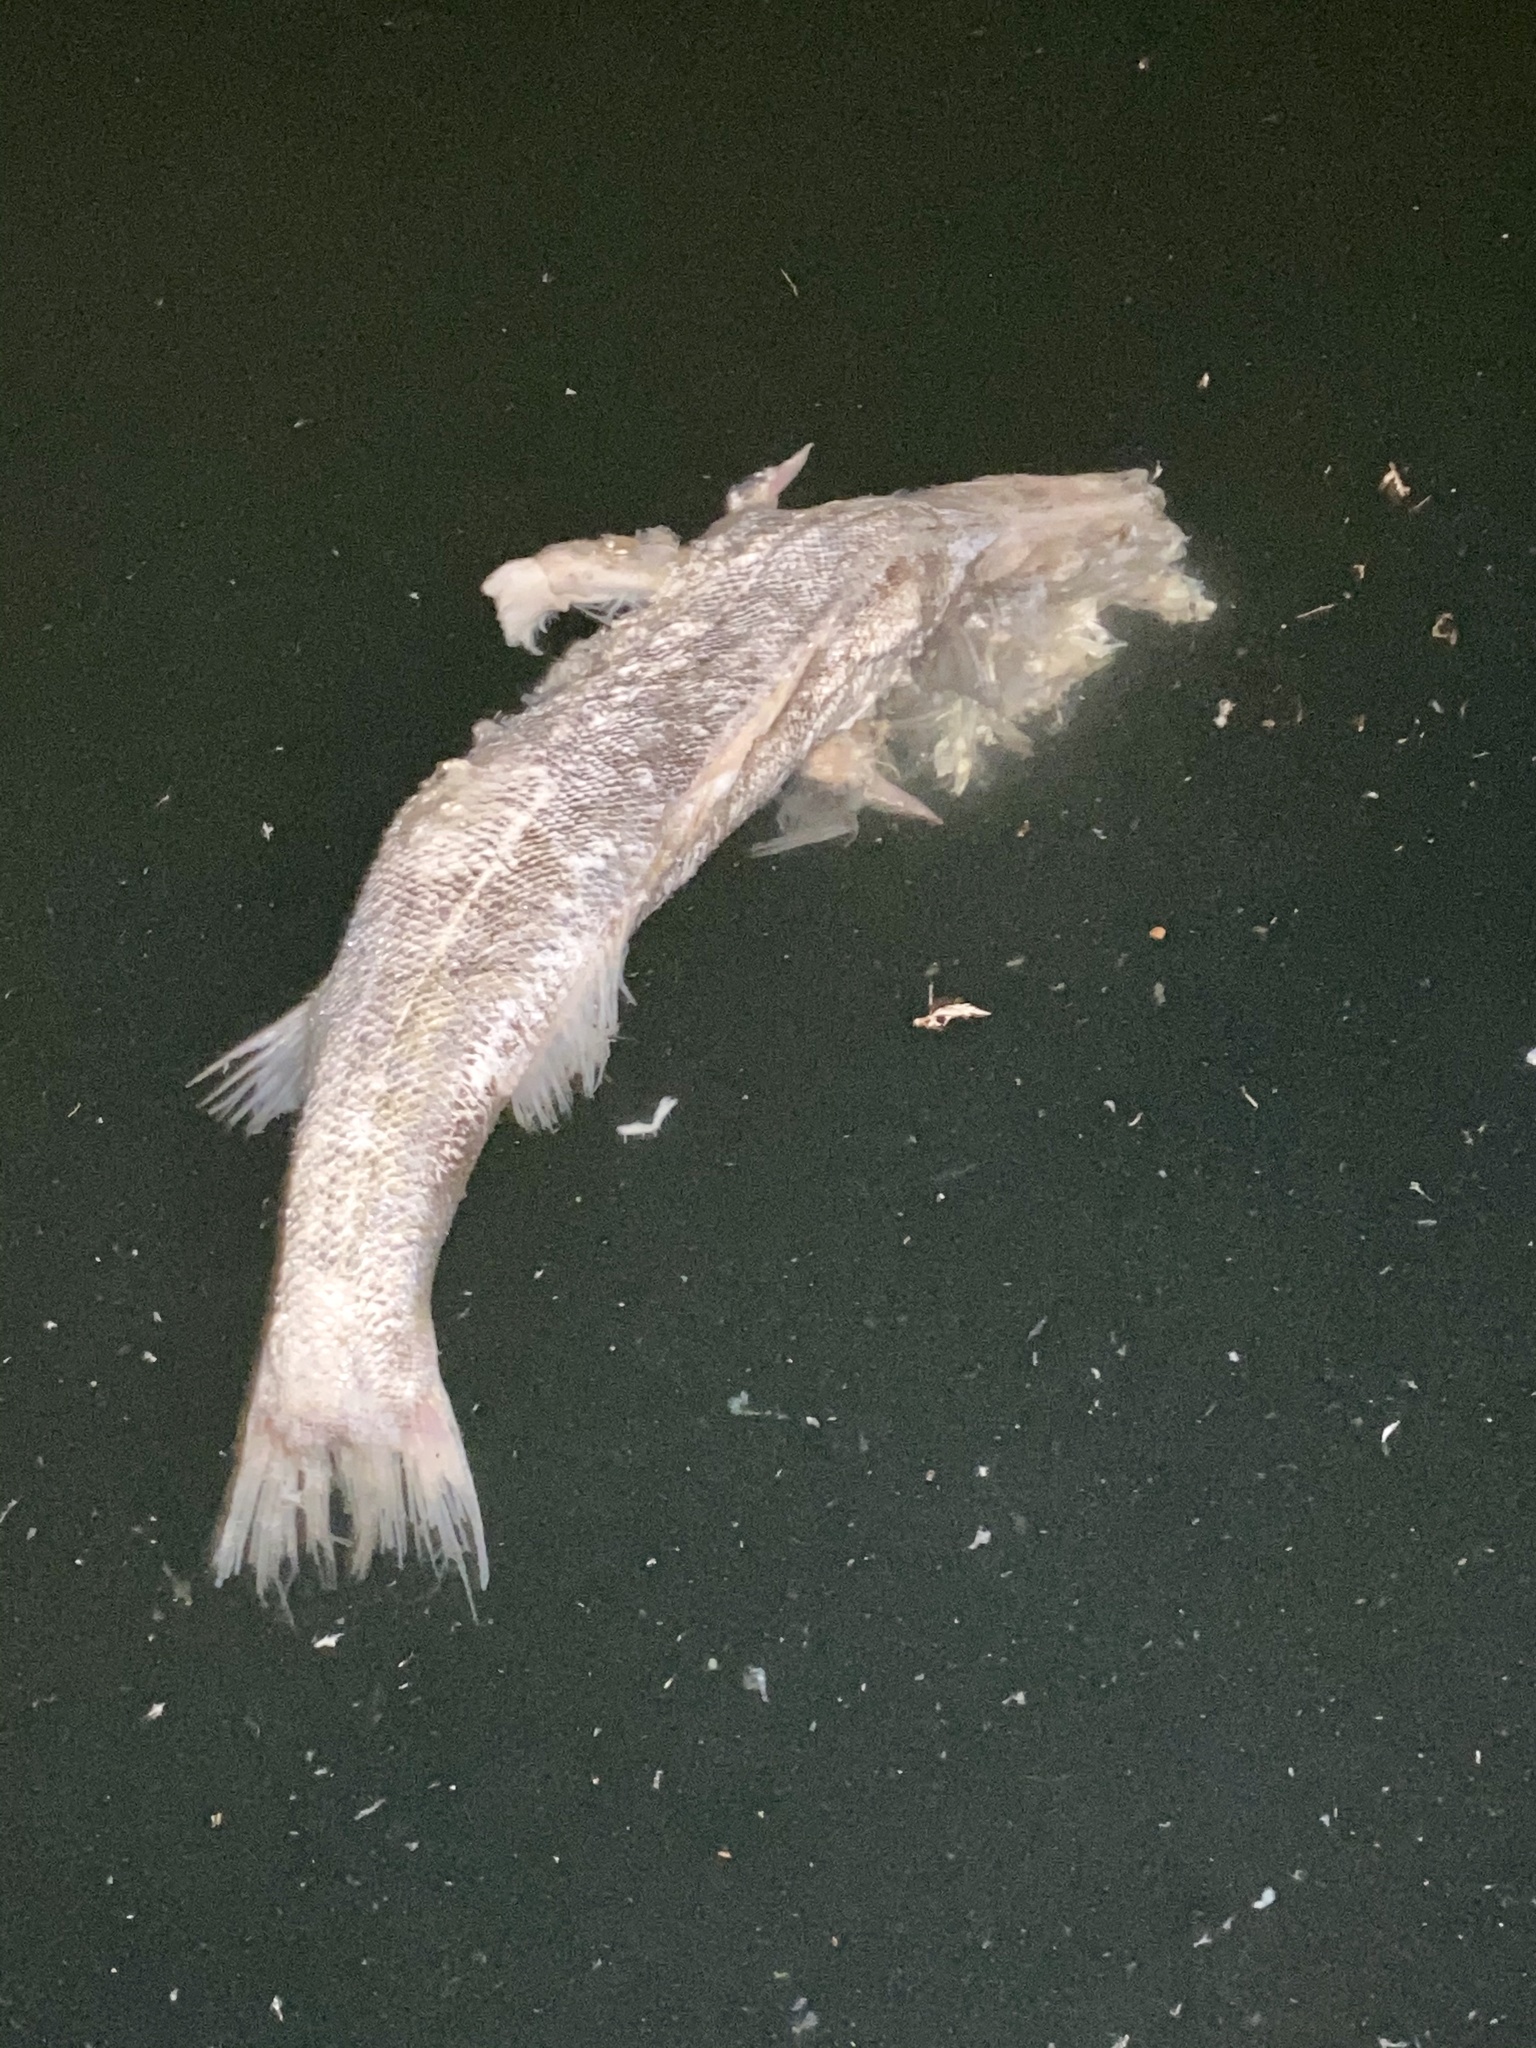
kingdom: Animalia
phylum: Chordata
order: Perciformes
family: Lateolabracidae
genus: Lateolabrax
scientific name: Lateolabrax japonicus
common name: Japan sea bass
